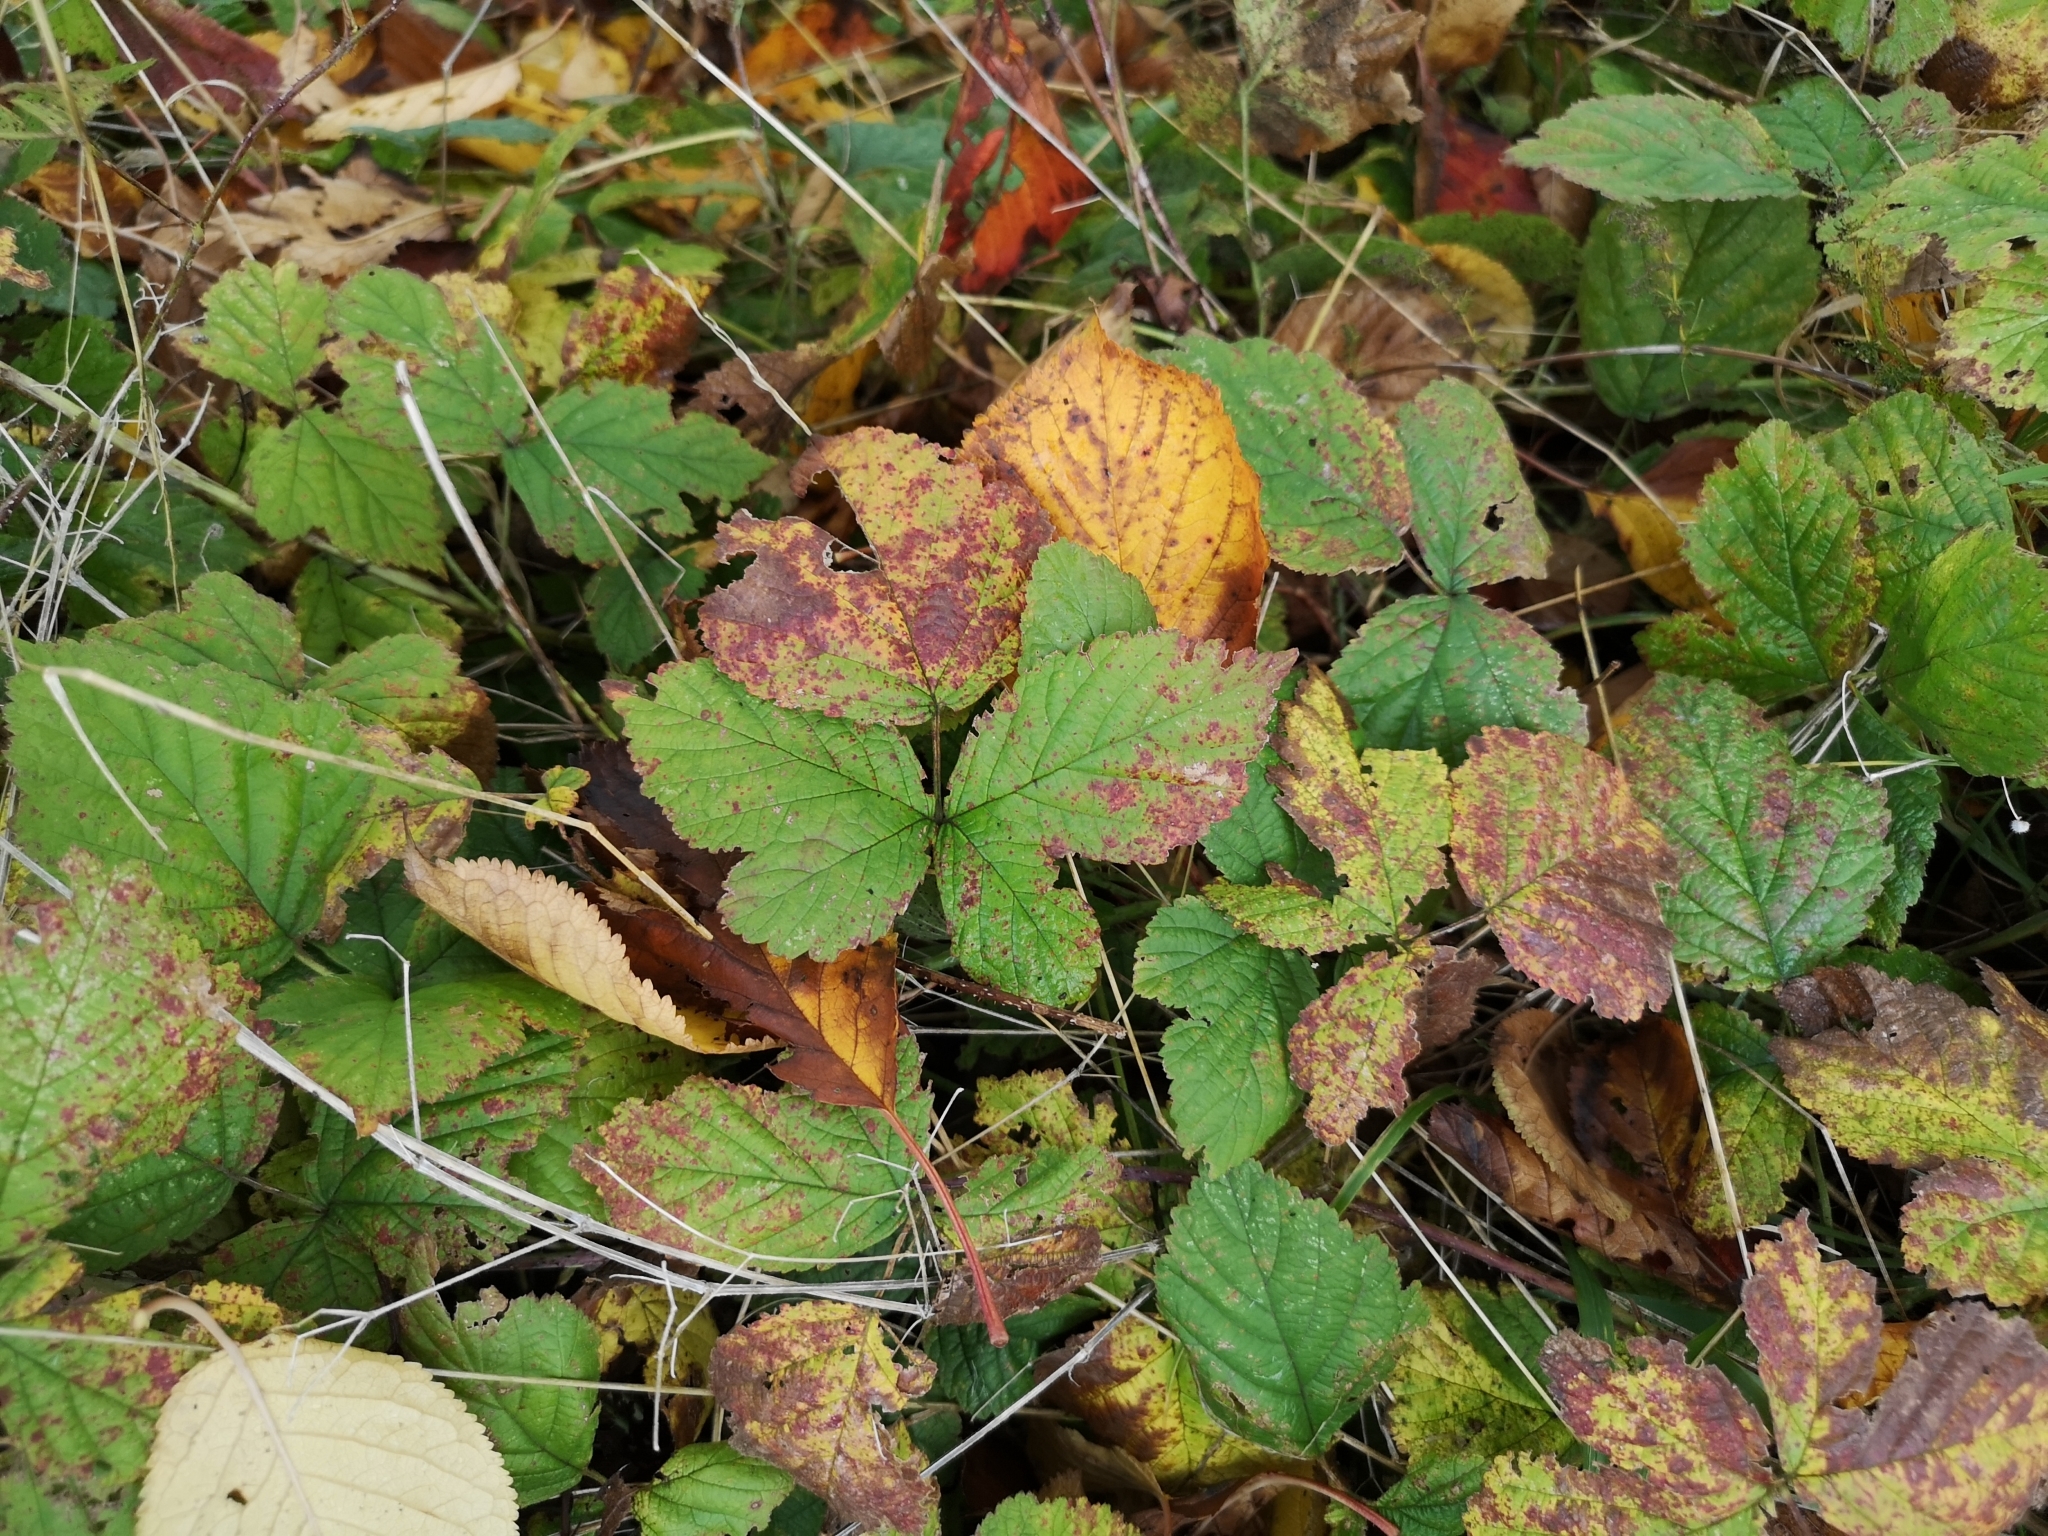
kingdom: Plantae
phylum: Tracheophyta
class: Magnoliopsida
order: Rosales
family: Rosaceae
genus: Rubus
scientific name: Rubus caesius
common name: Dewberry
